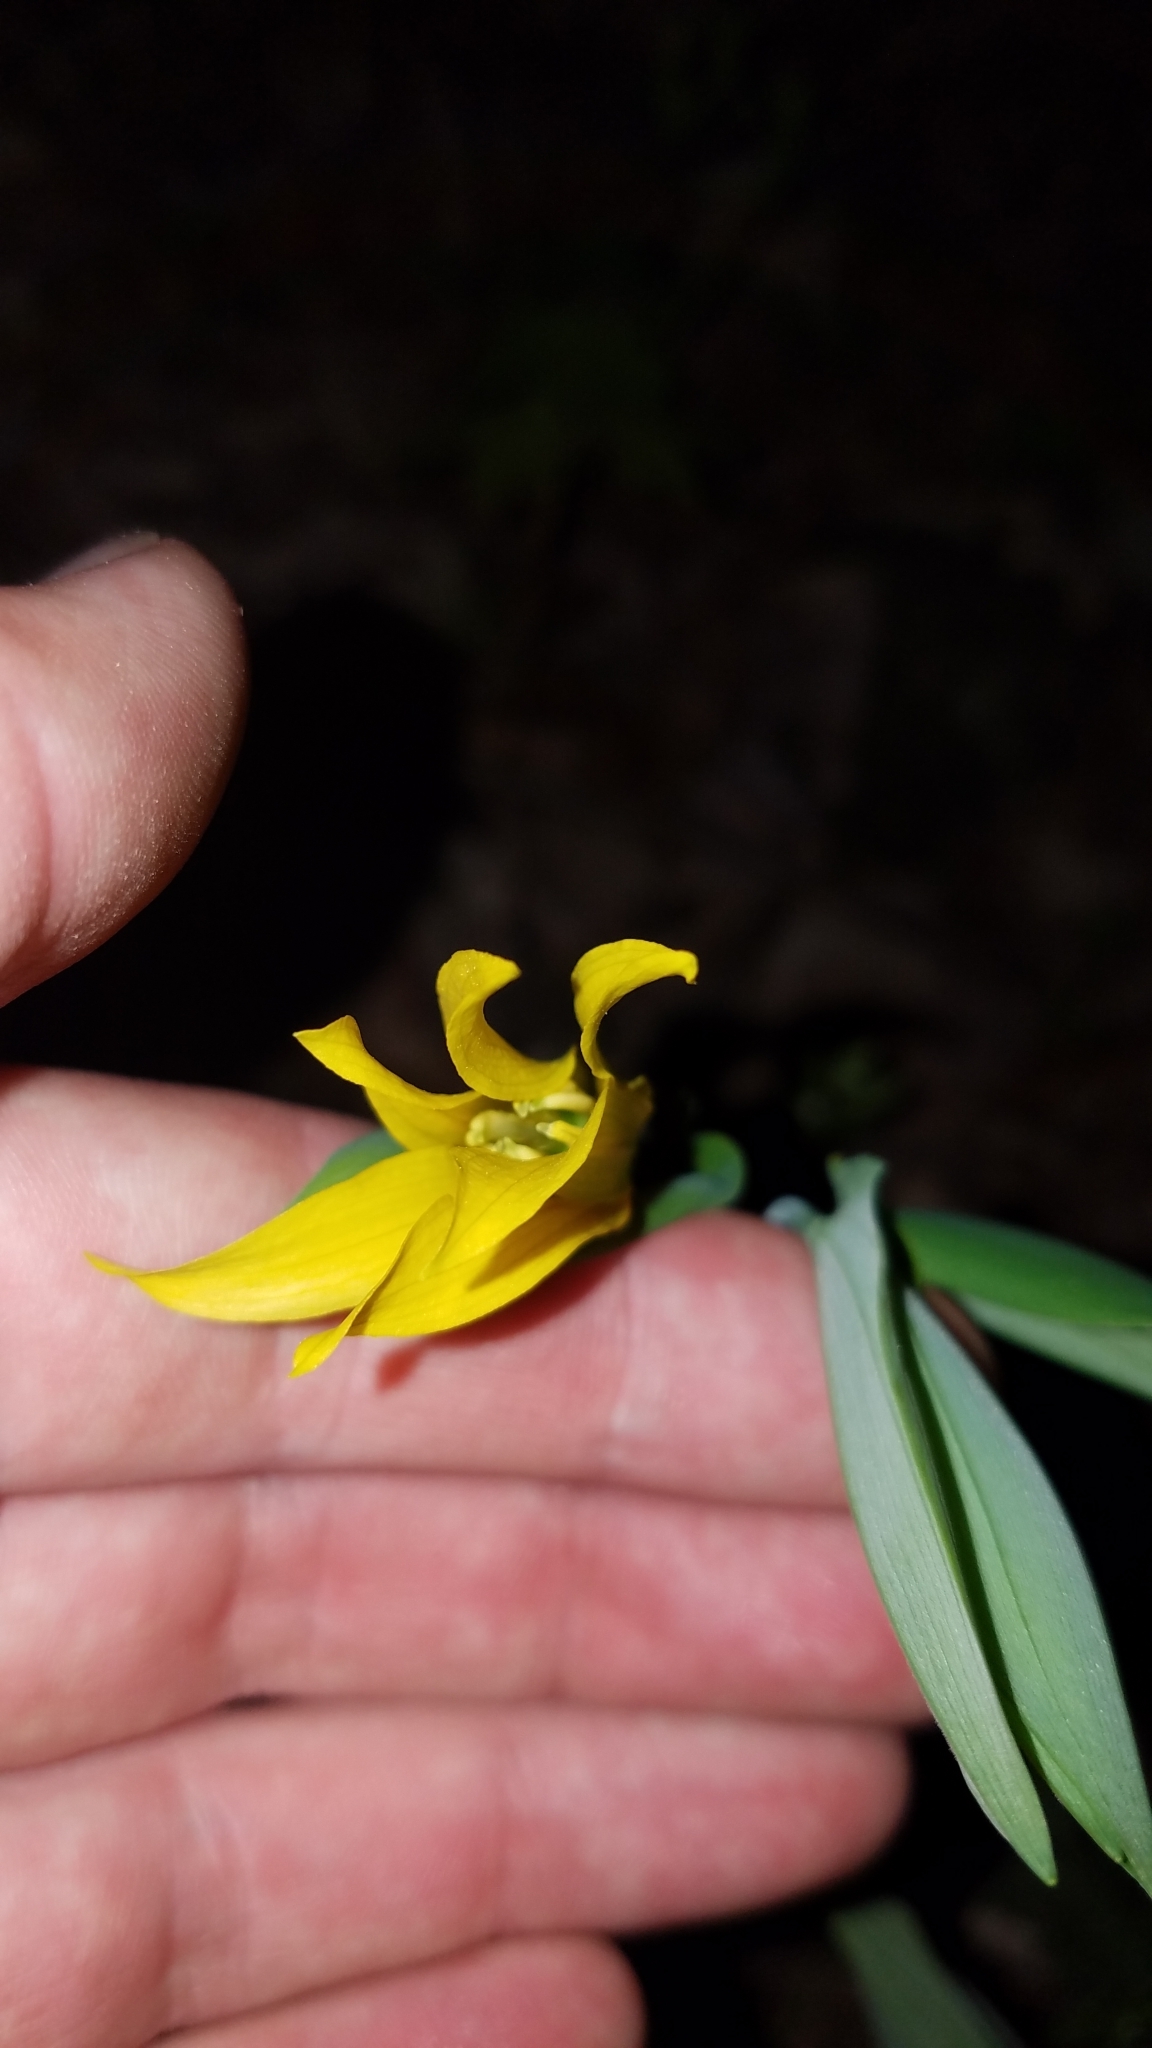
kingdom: Plantae
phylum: Tracheophyta
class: Liliopsida
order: Liliales
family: Colchicaceae
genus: Uvularia
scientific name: Uvularia grandiflora
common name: Bellwort
